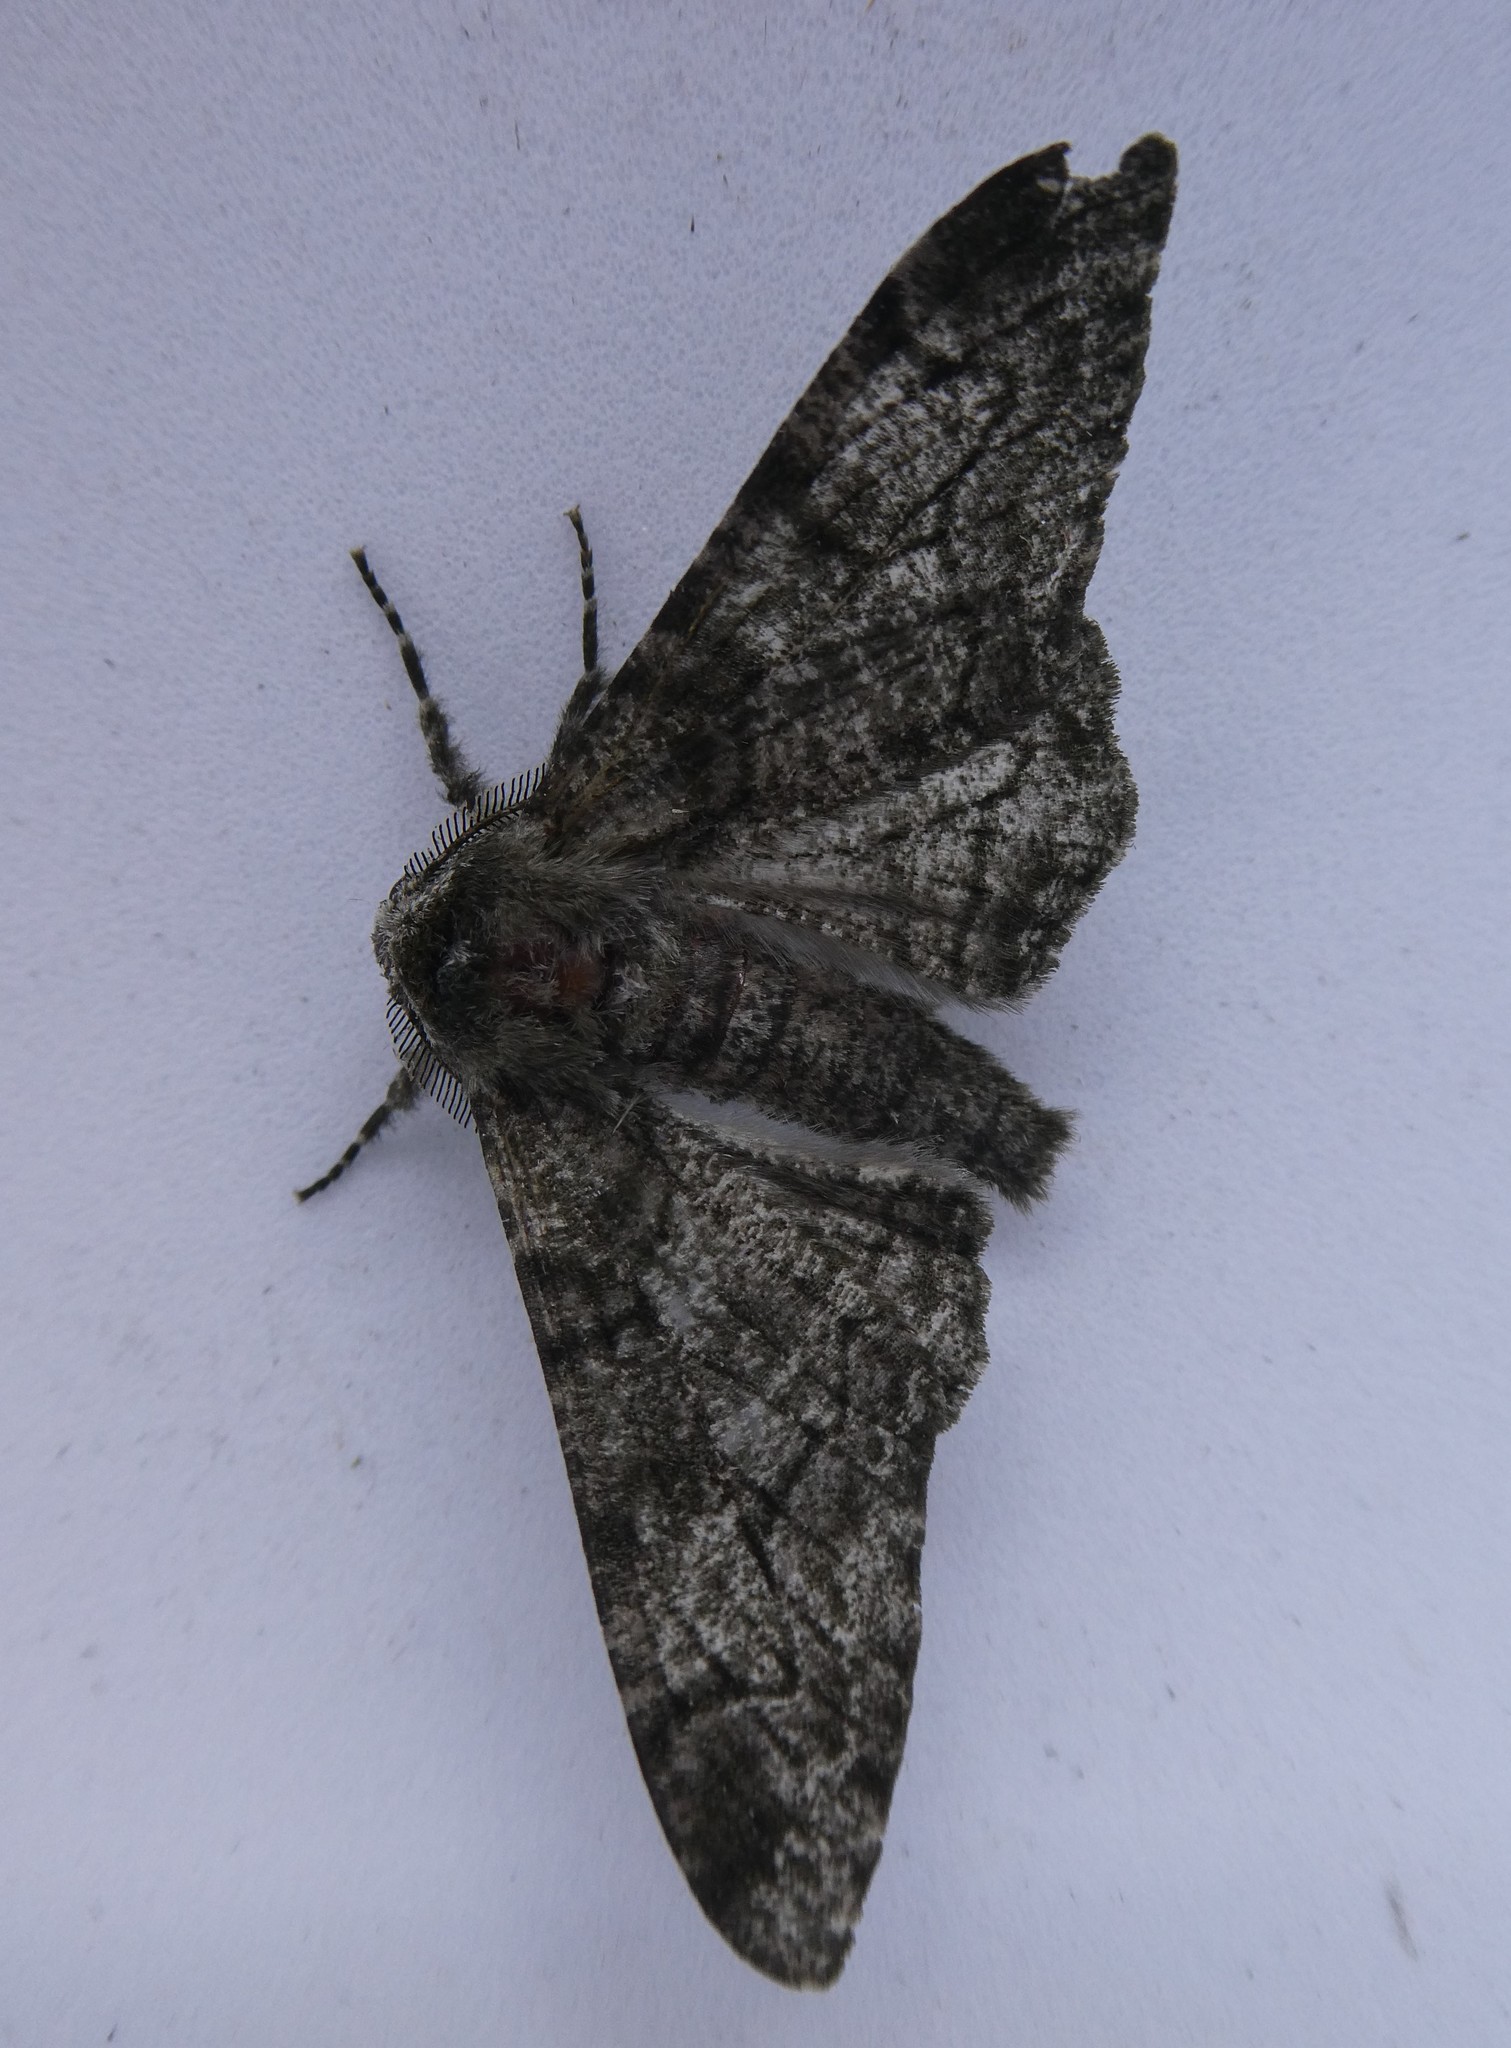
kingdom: Animalia
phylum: Arthropoda
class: Insecta
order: Lepidoptera
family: Geometridae
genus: Biston
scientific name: Biston betularia
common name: Peppered moth
